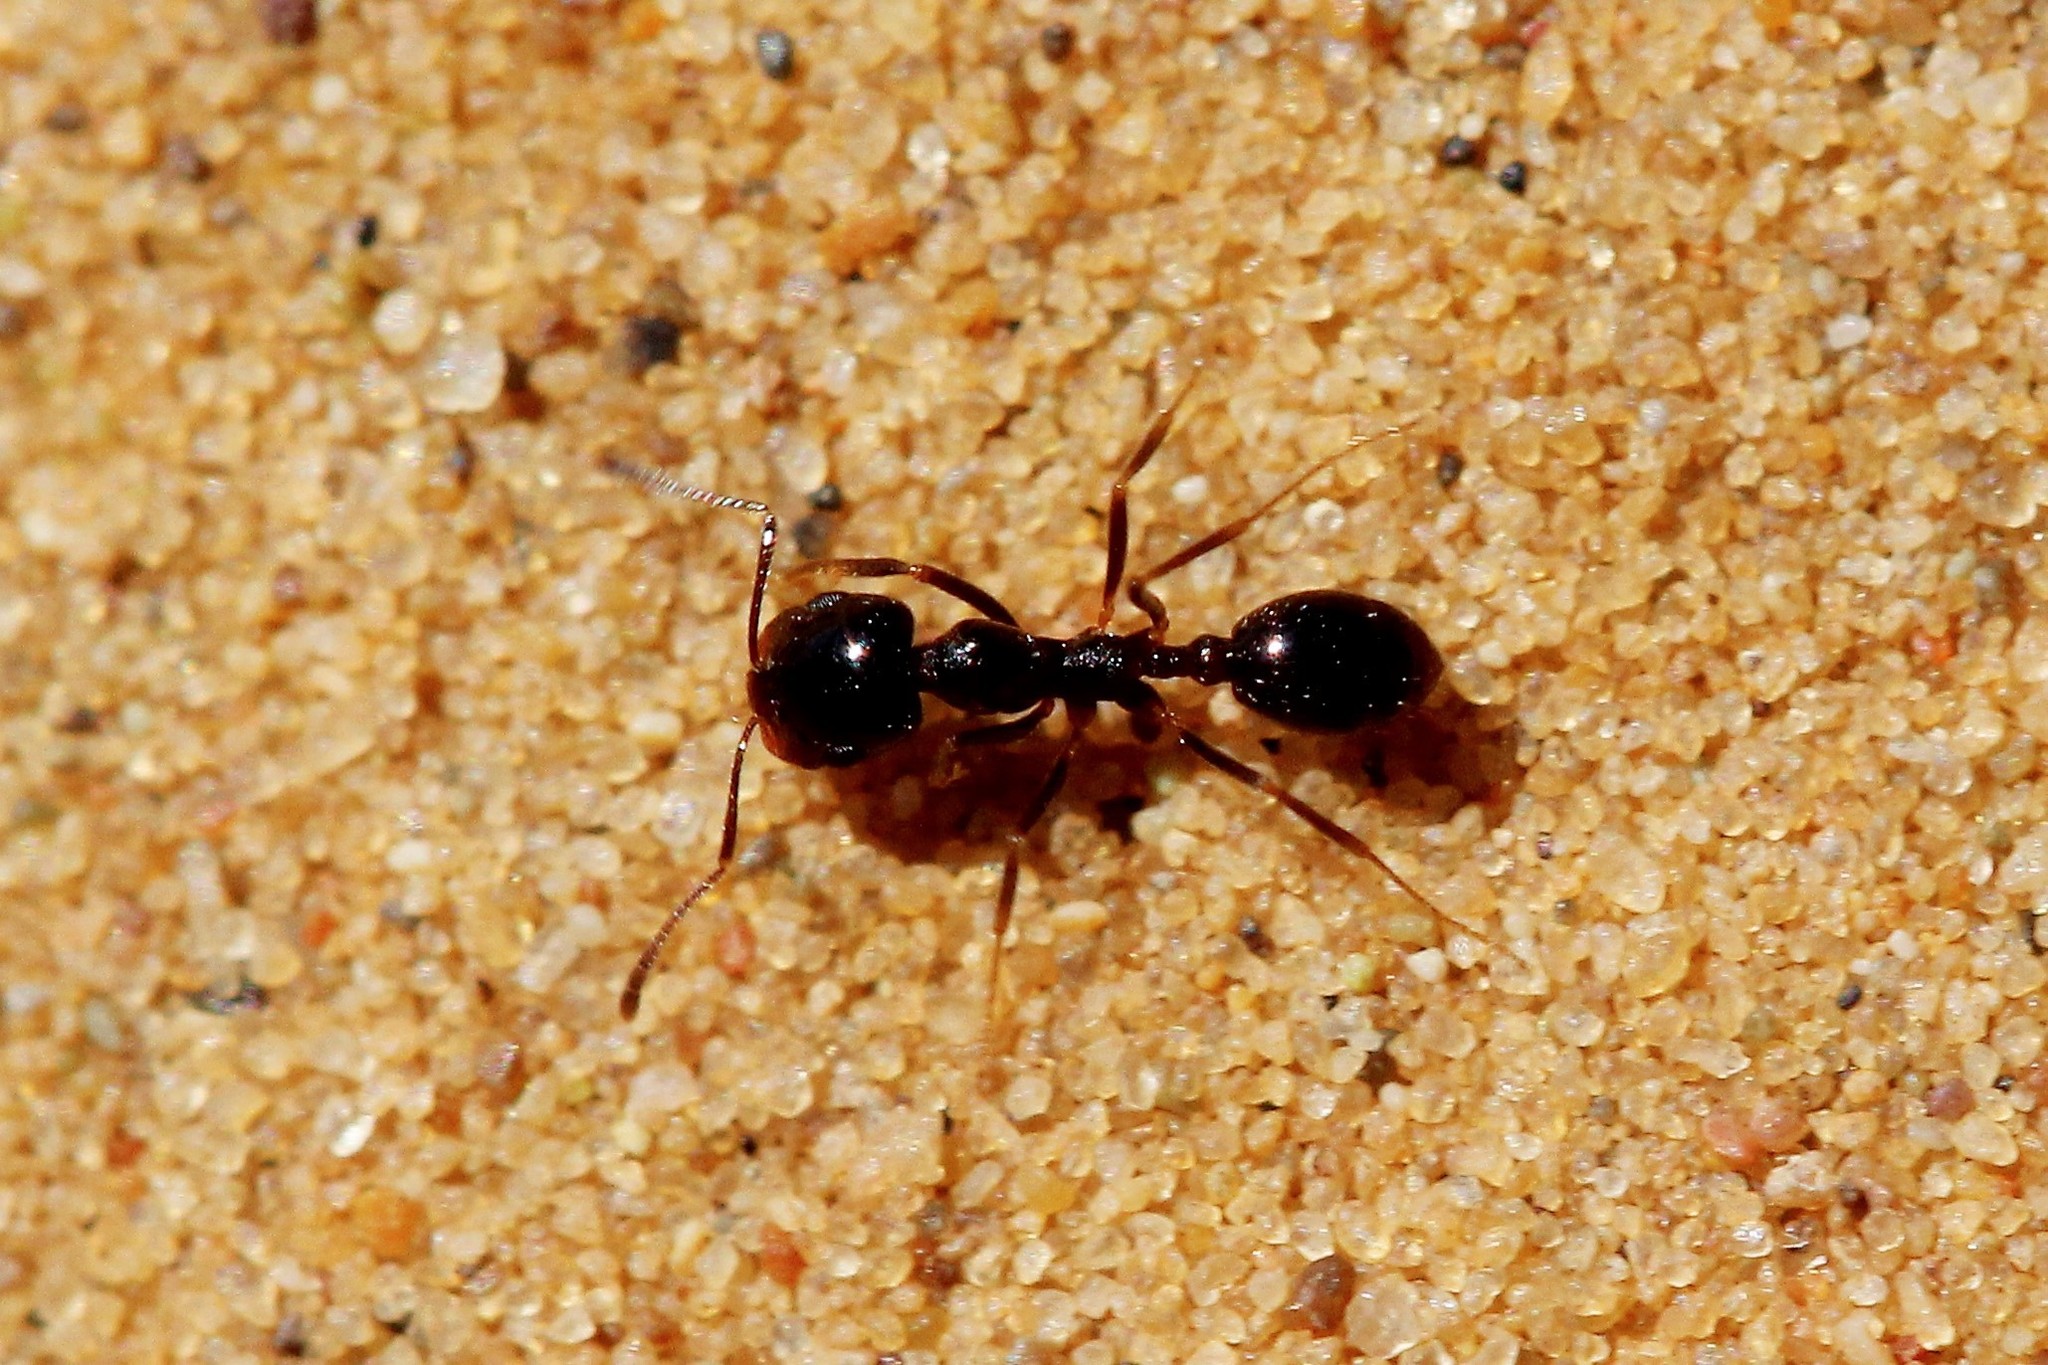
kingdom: Animalia
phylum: Arthropoda
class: Insecta
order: Hymenoptera
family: Formicidae
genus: Monomorium
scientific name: Monomorium barbatulum
